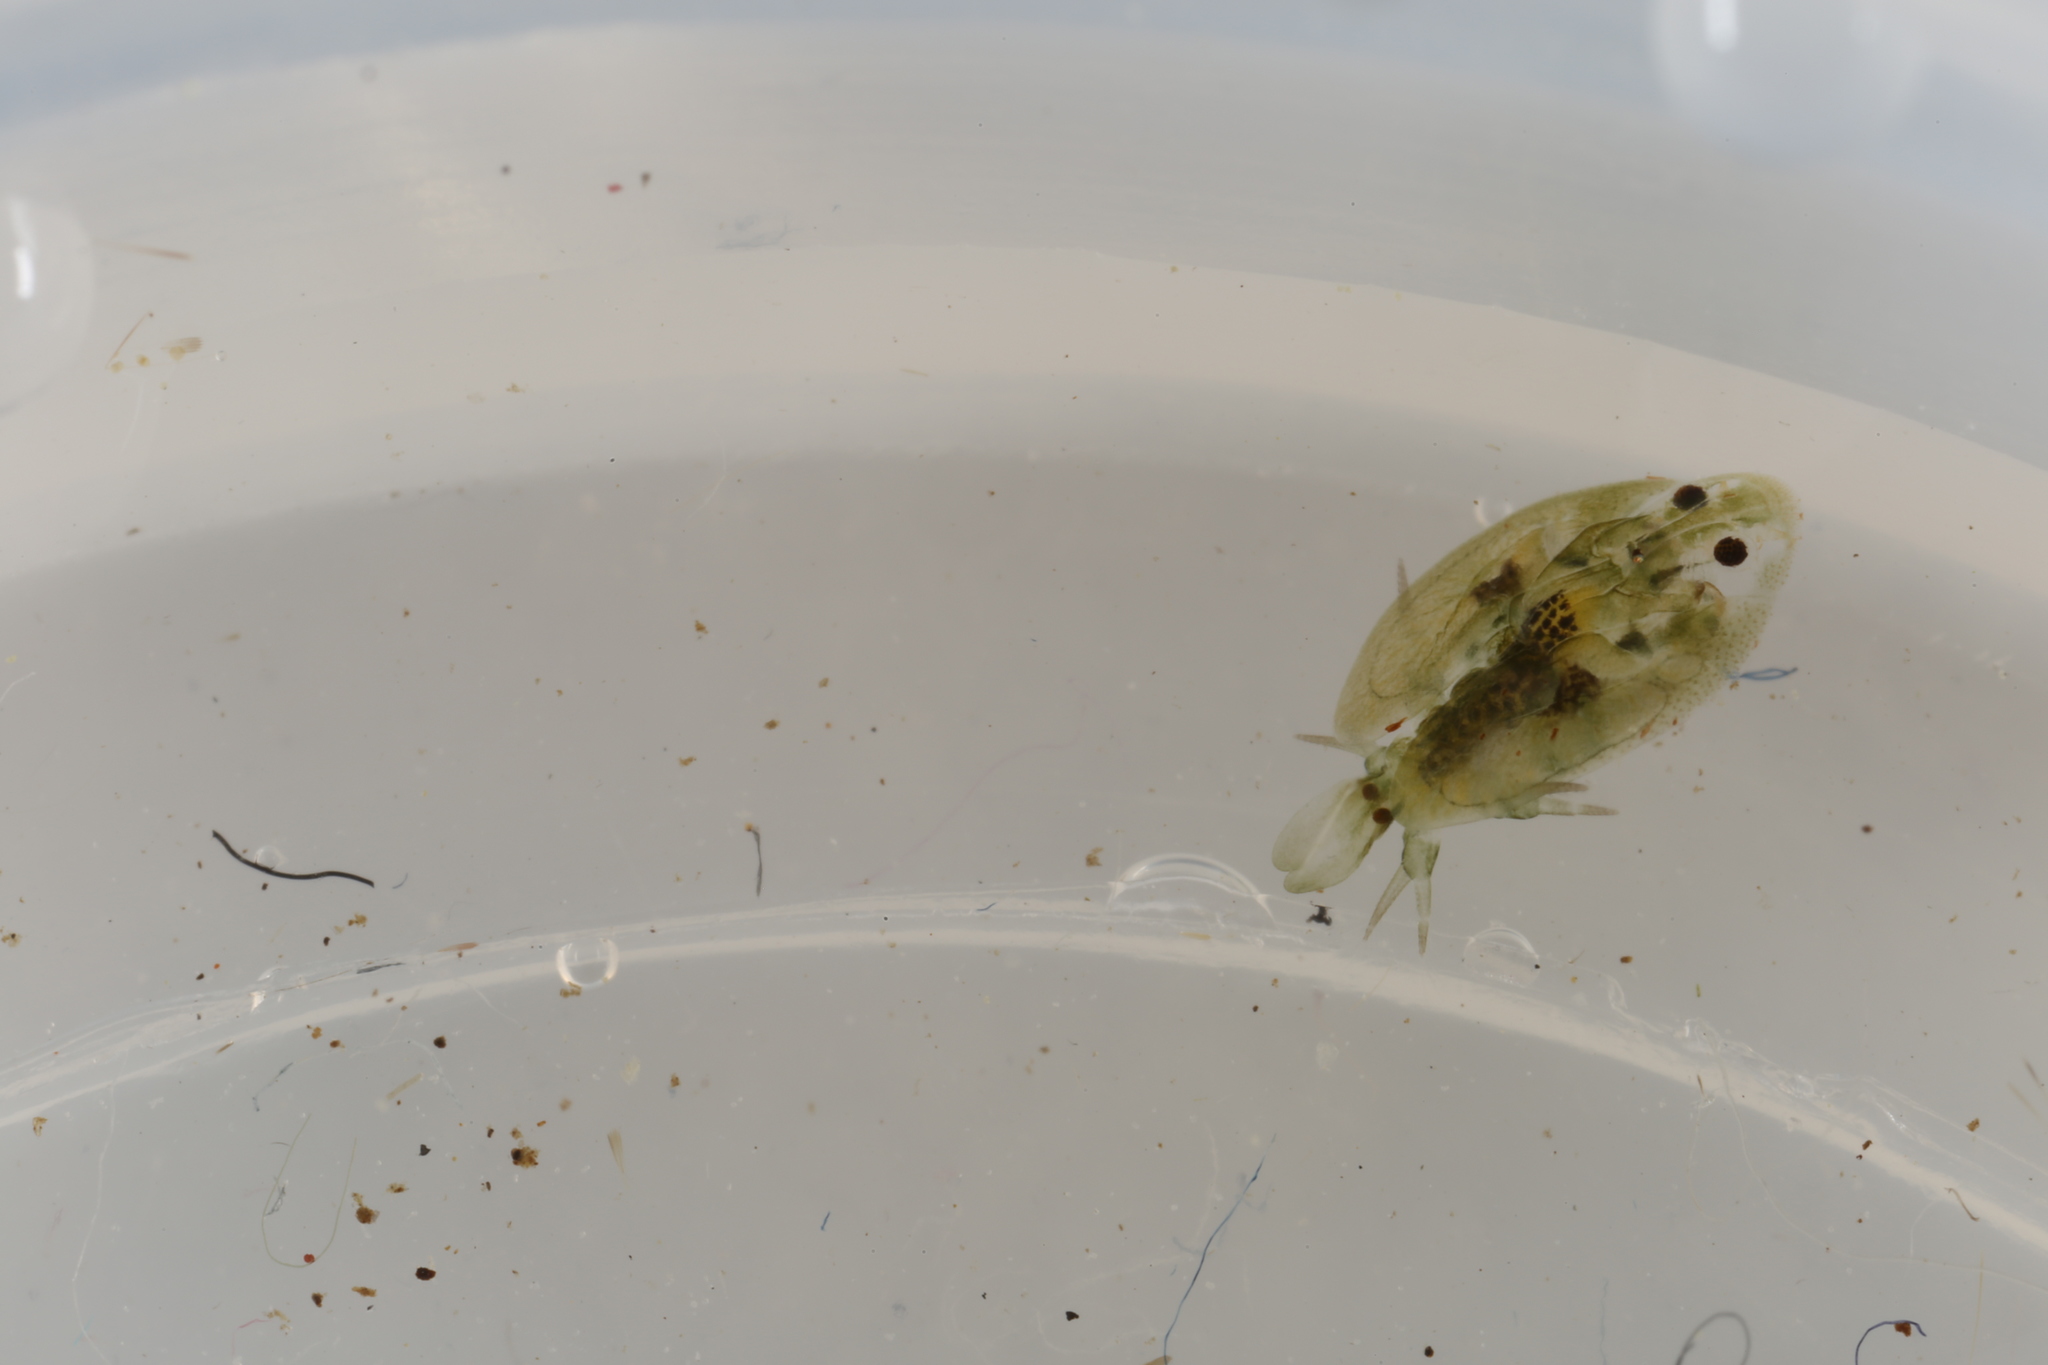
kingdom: Animalia
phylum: Arthropoda
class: Maxillopoda
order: Arguloida
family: Argulidae
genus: Argulus
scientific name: Argulus foliaceus
